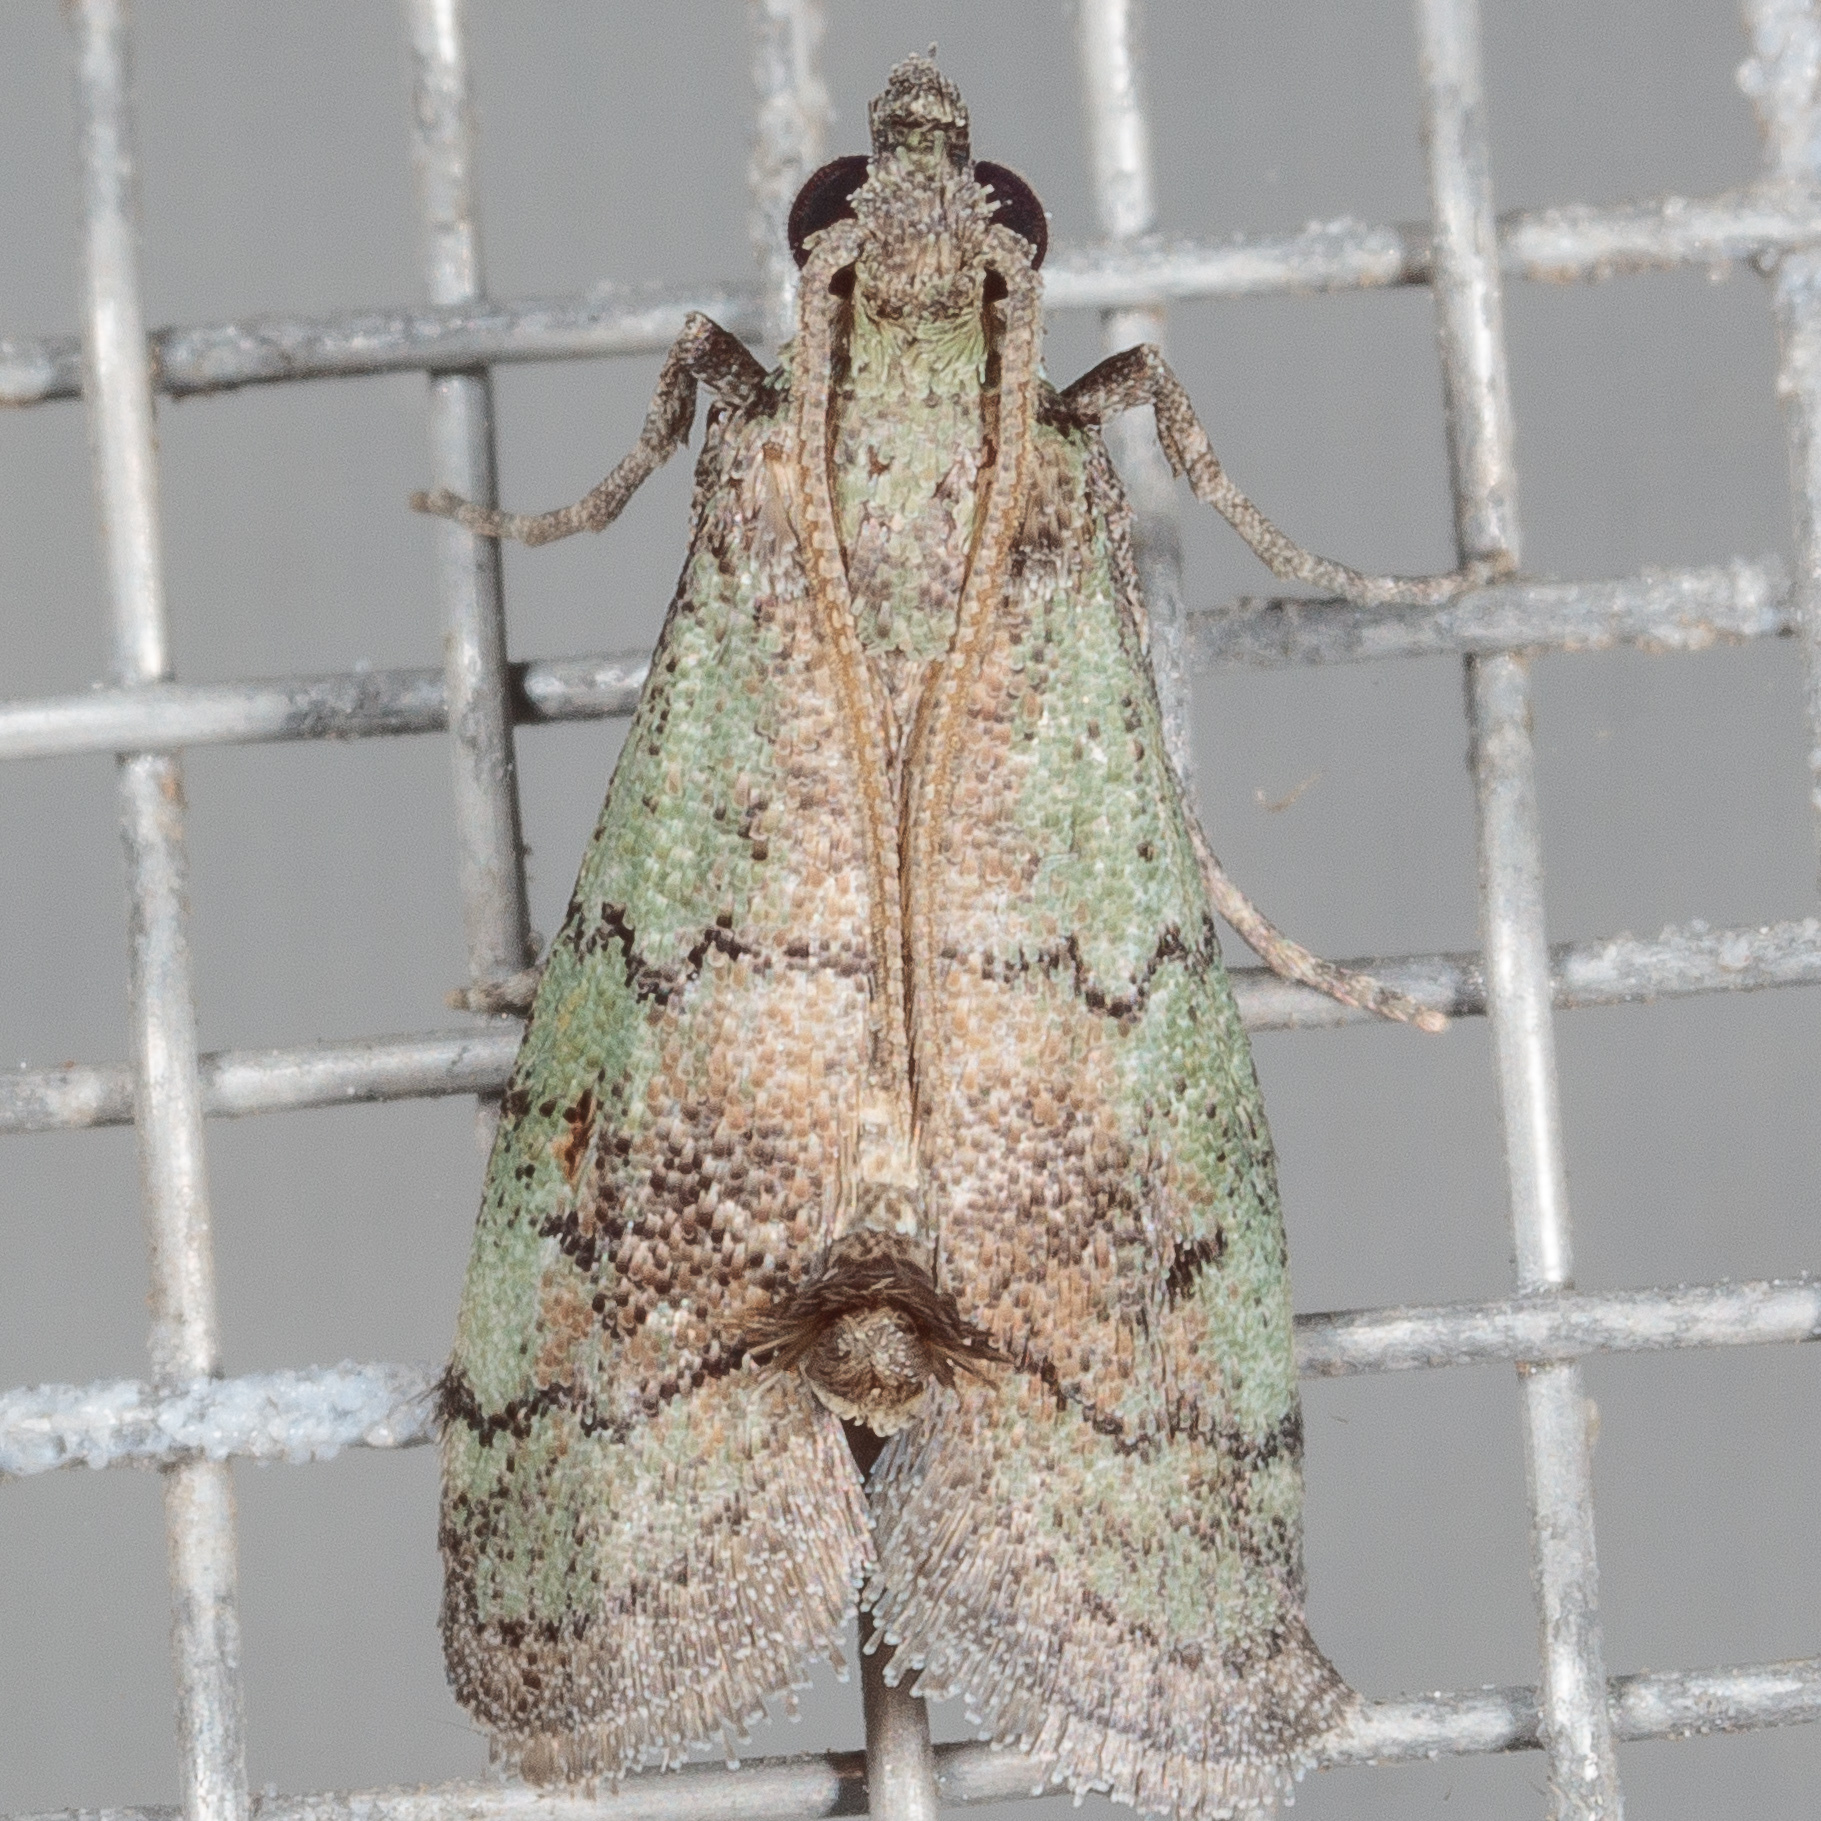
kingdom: Animalia
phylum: Arthropoda
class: Insecta
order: Lepidoptera
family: Pyralidae
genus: Cacotherapia
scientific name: Cacotherapia flexilinealis
